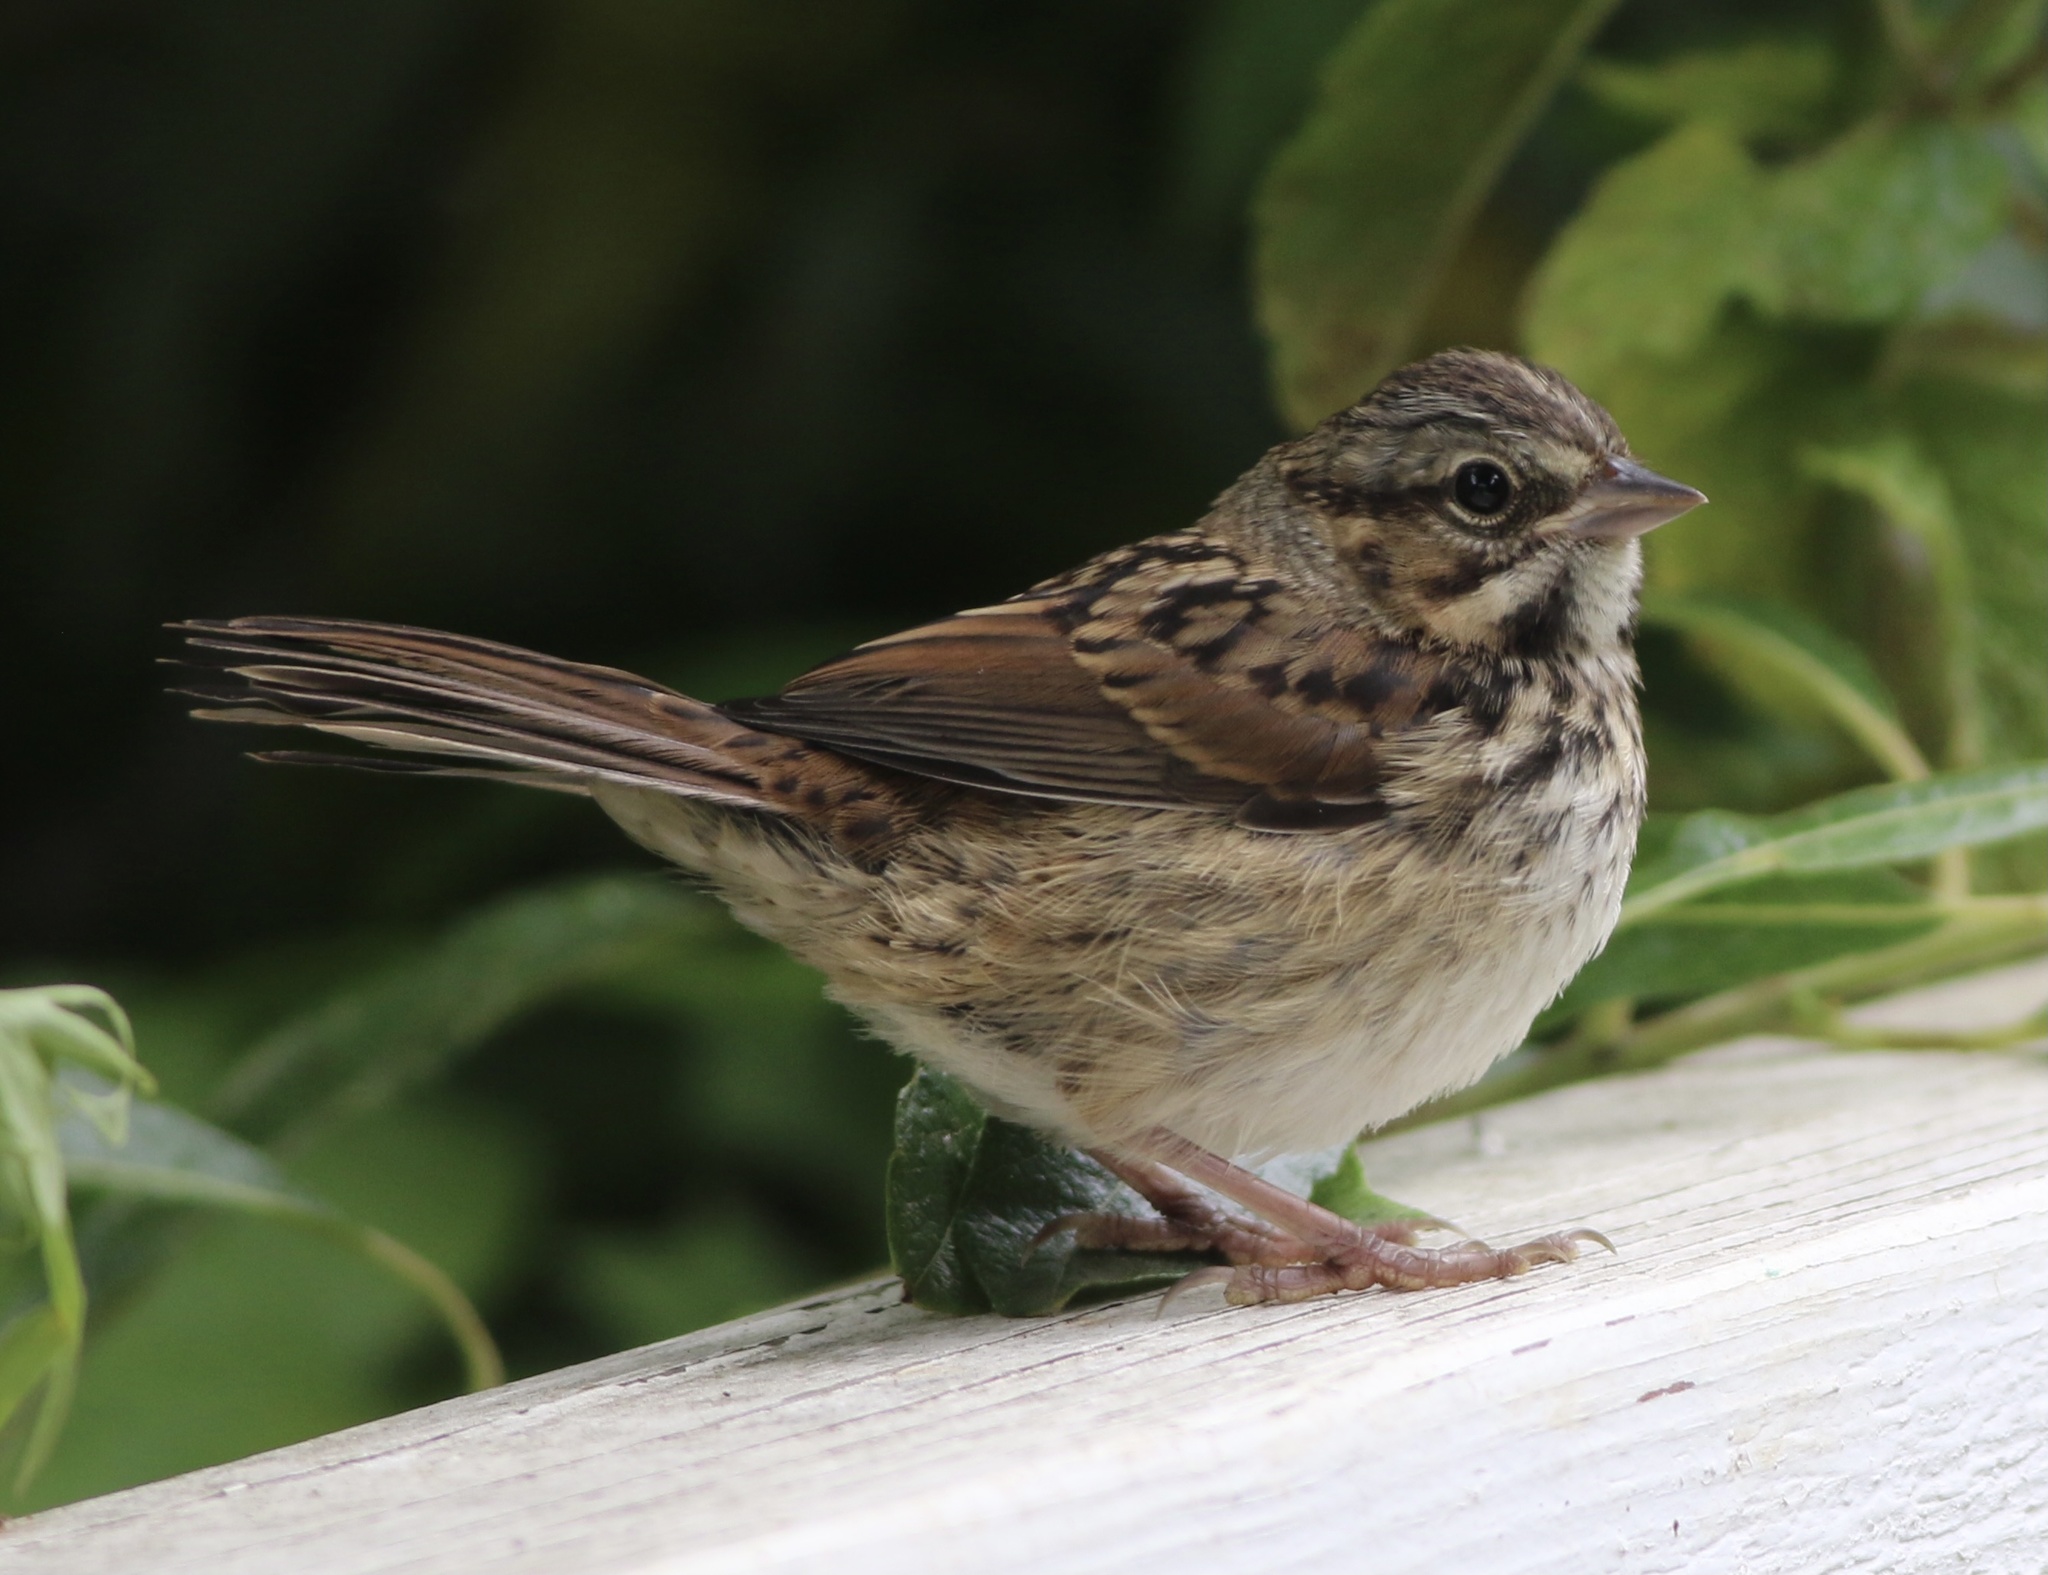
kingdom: Animalia
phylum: Chordata
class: Aves
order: Passeriformes
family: Passerellidae
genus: Melospiza
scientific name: Melospiza melodia
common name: Song sparrow
